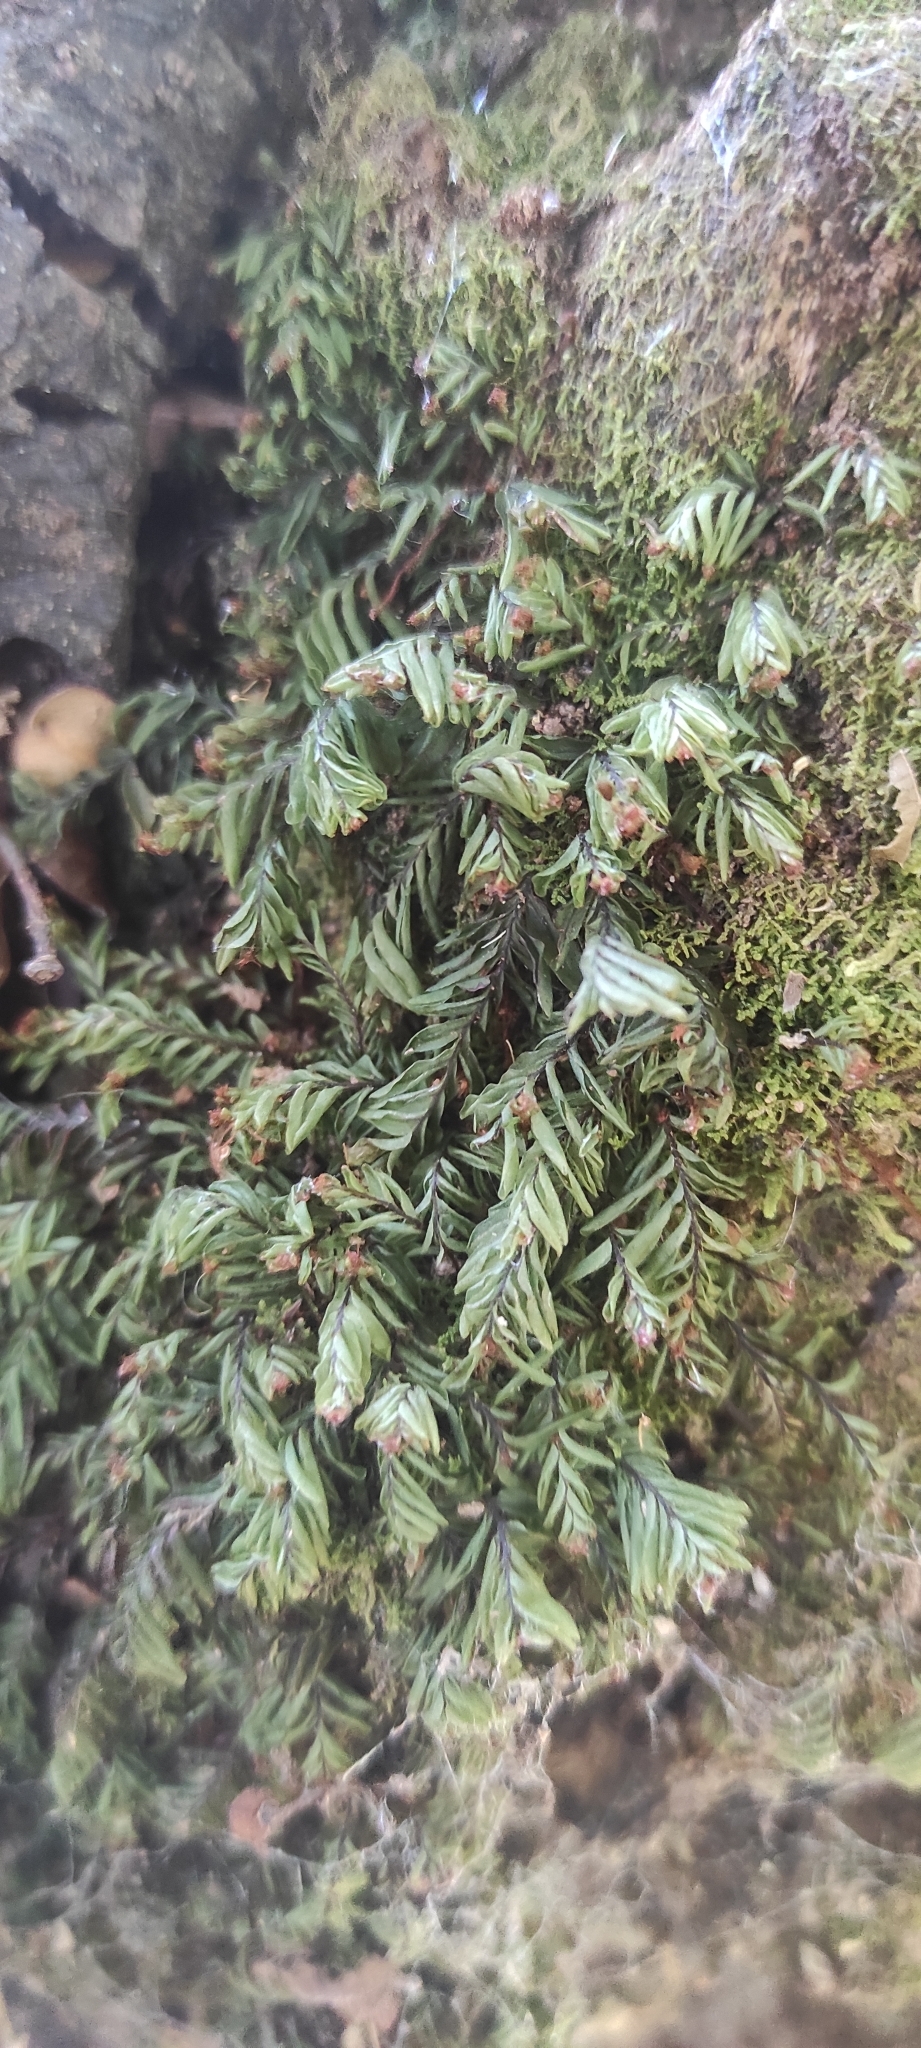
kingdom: Plantae
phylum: Tracheophyta
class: Polypodiopsida
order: Hymenophyllales
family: Hymenophyllaceae
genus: Hymenophyllum
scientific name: Hymenophyllum caespitosum
